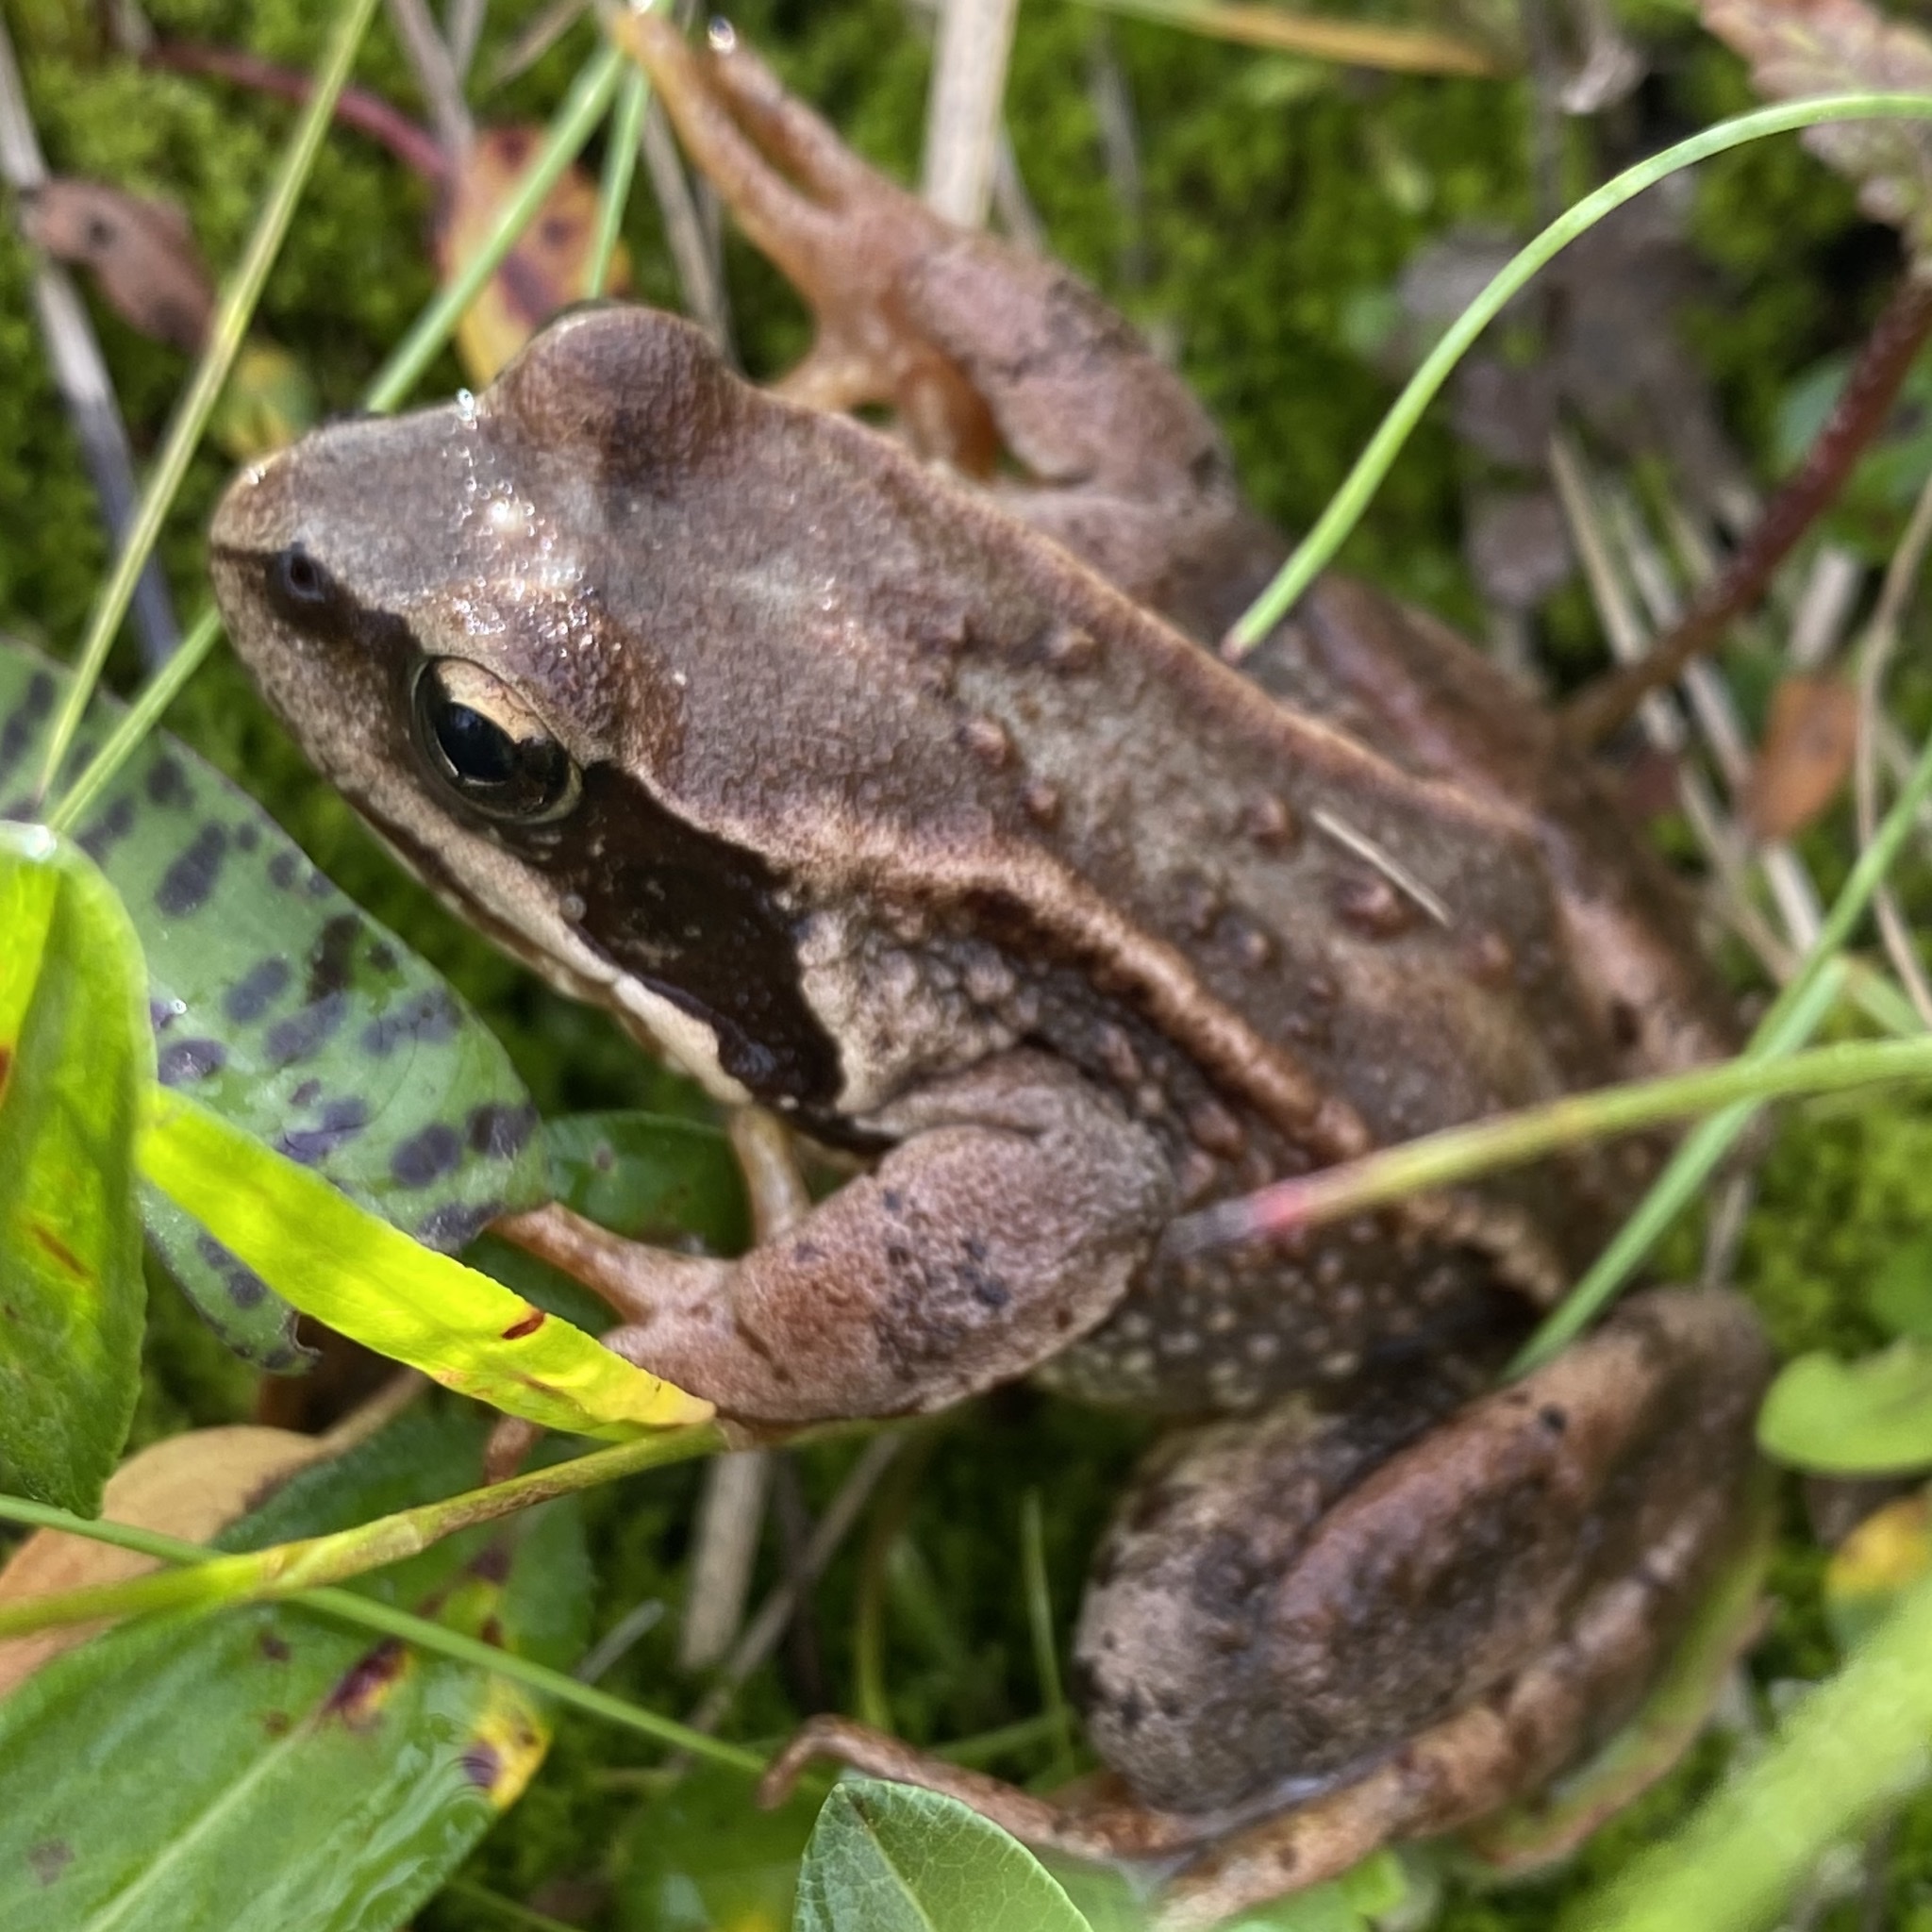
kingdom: Animalia
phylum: Chordata
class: Amphibia
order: Anura
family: Ranidae
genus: Rana
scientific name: Rana temporaria
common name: Common frog
